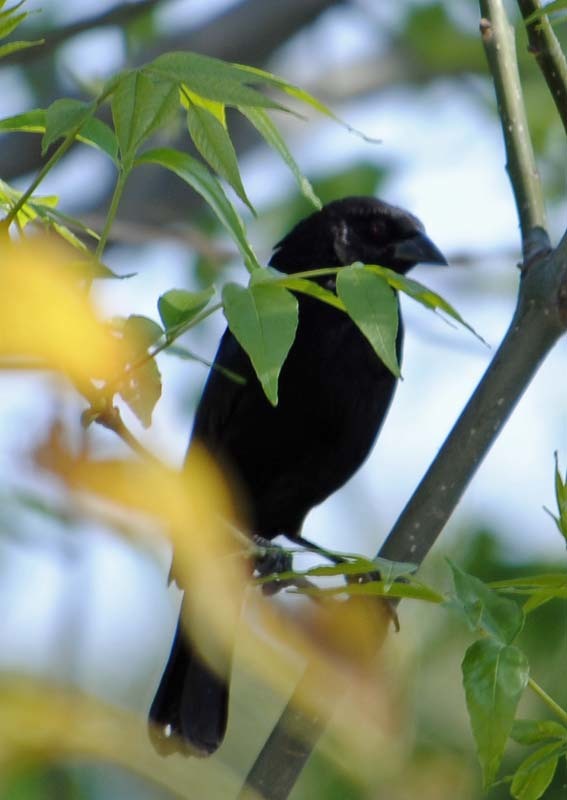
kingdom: Animalia
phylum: Chordata
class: Aves
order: Passeriformes
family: Icteridae
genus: Molothrus
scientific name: Molothrus aeneus
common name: Bronzed cowbird
